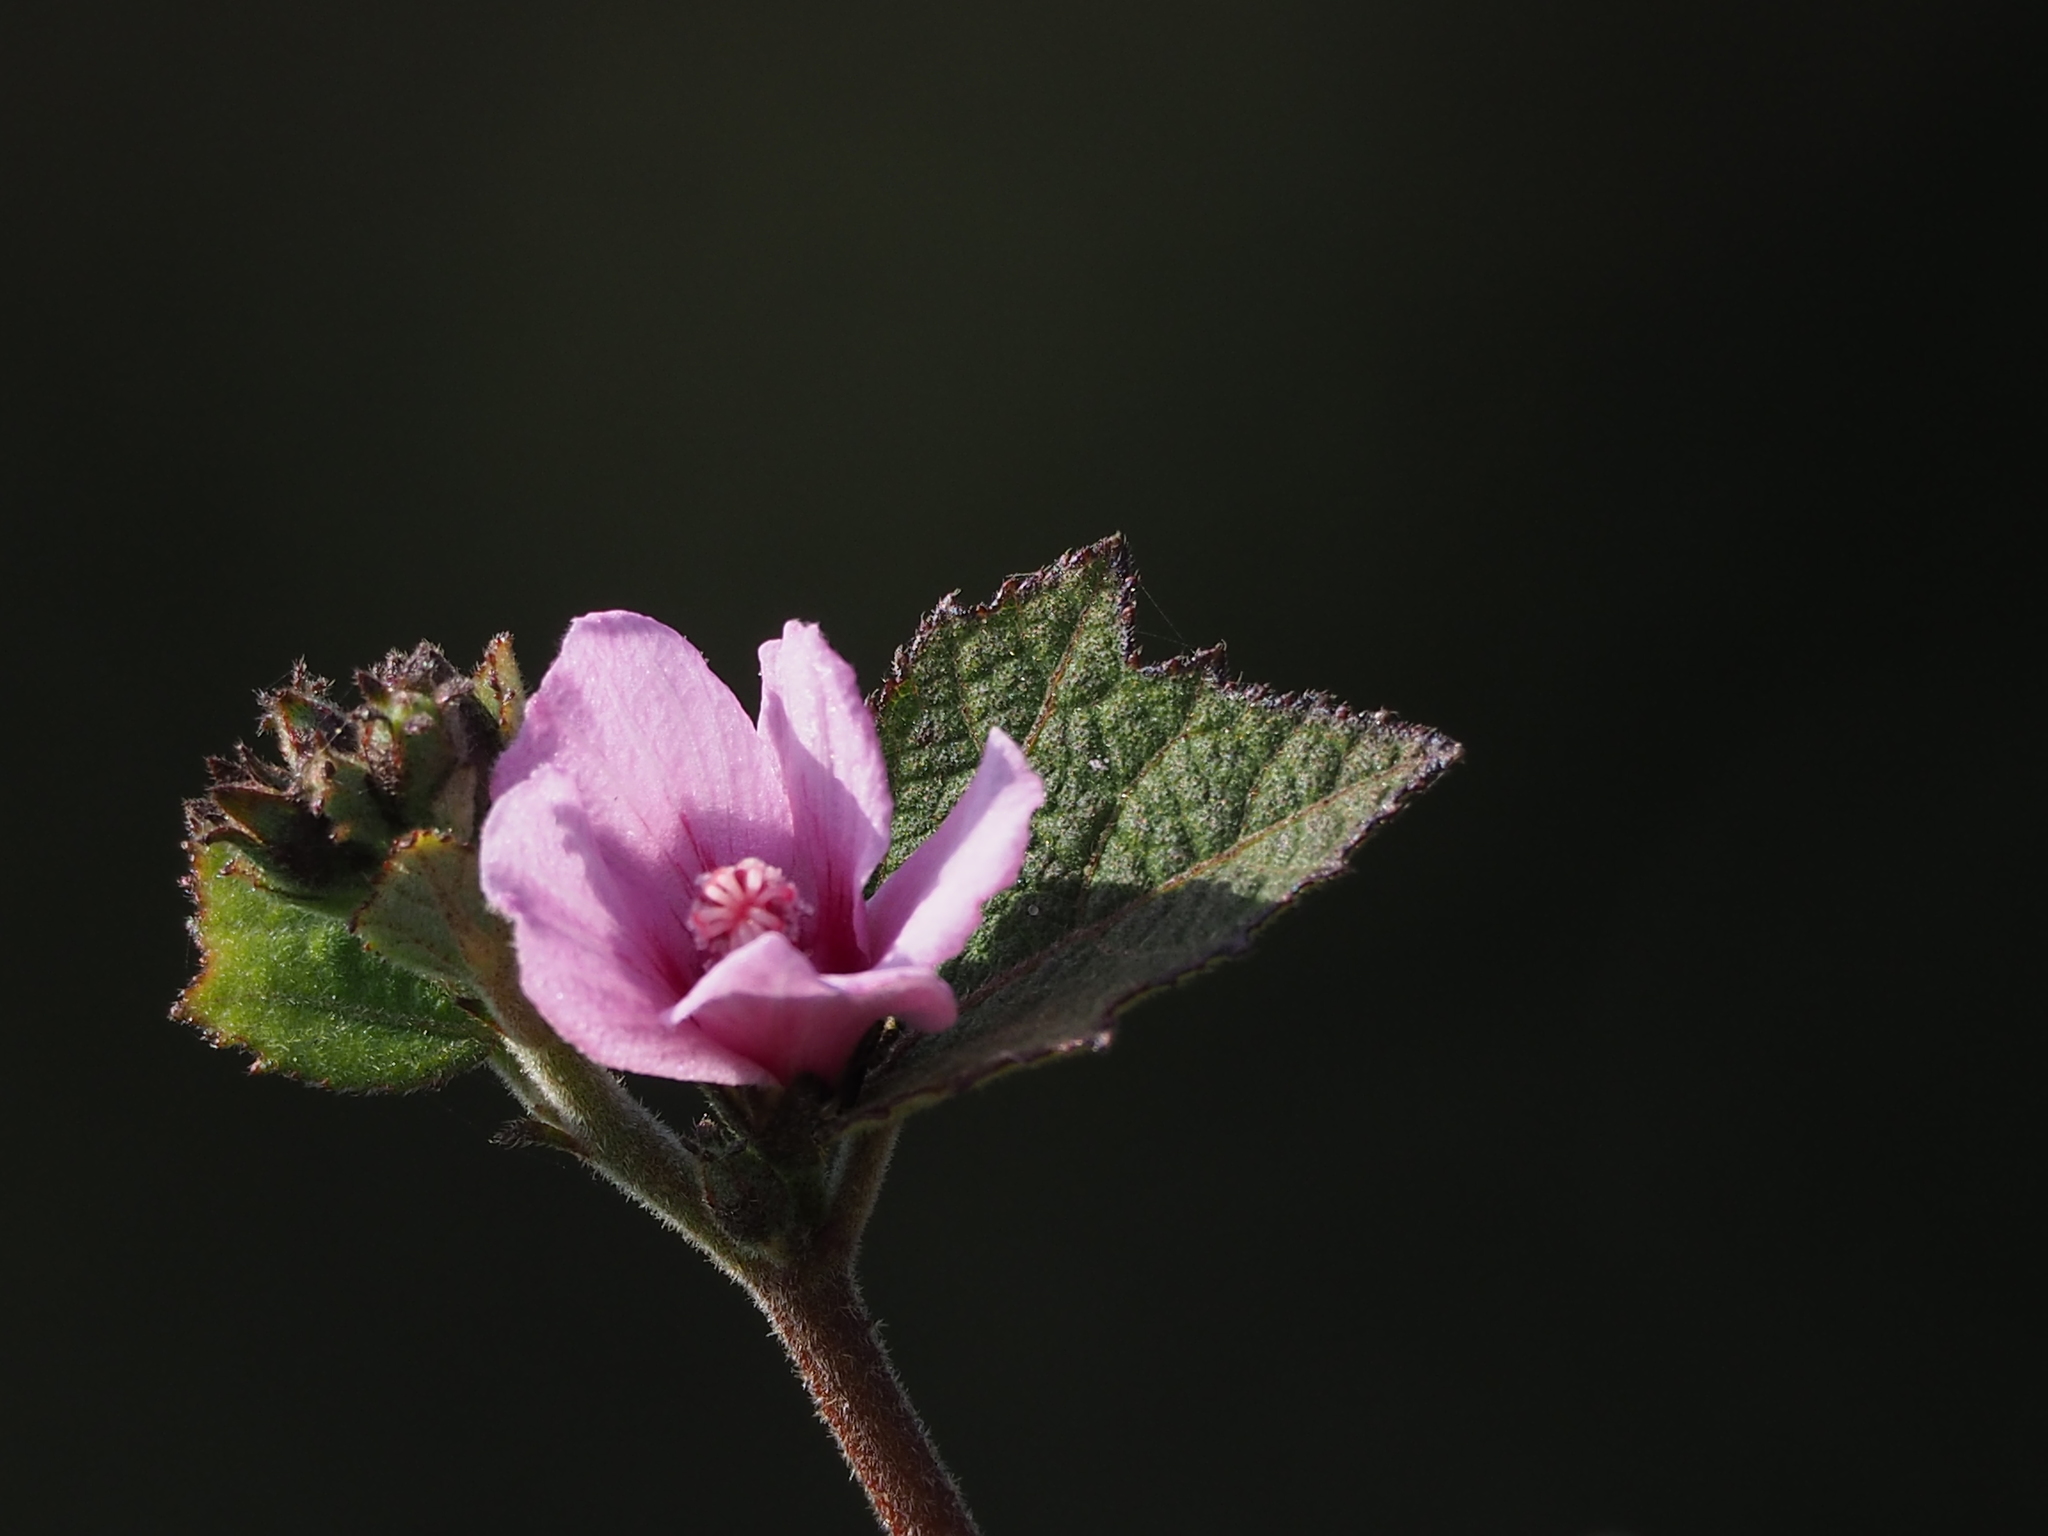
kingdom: Plantae
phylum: Tracheophyta
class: Magnoliopsida
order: Malvales
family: Malvaceae
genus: Urena
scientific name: Urena lobata
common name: Caesarweed
